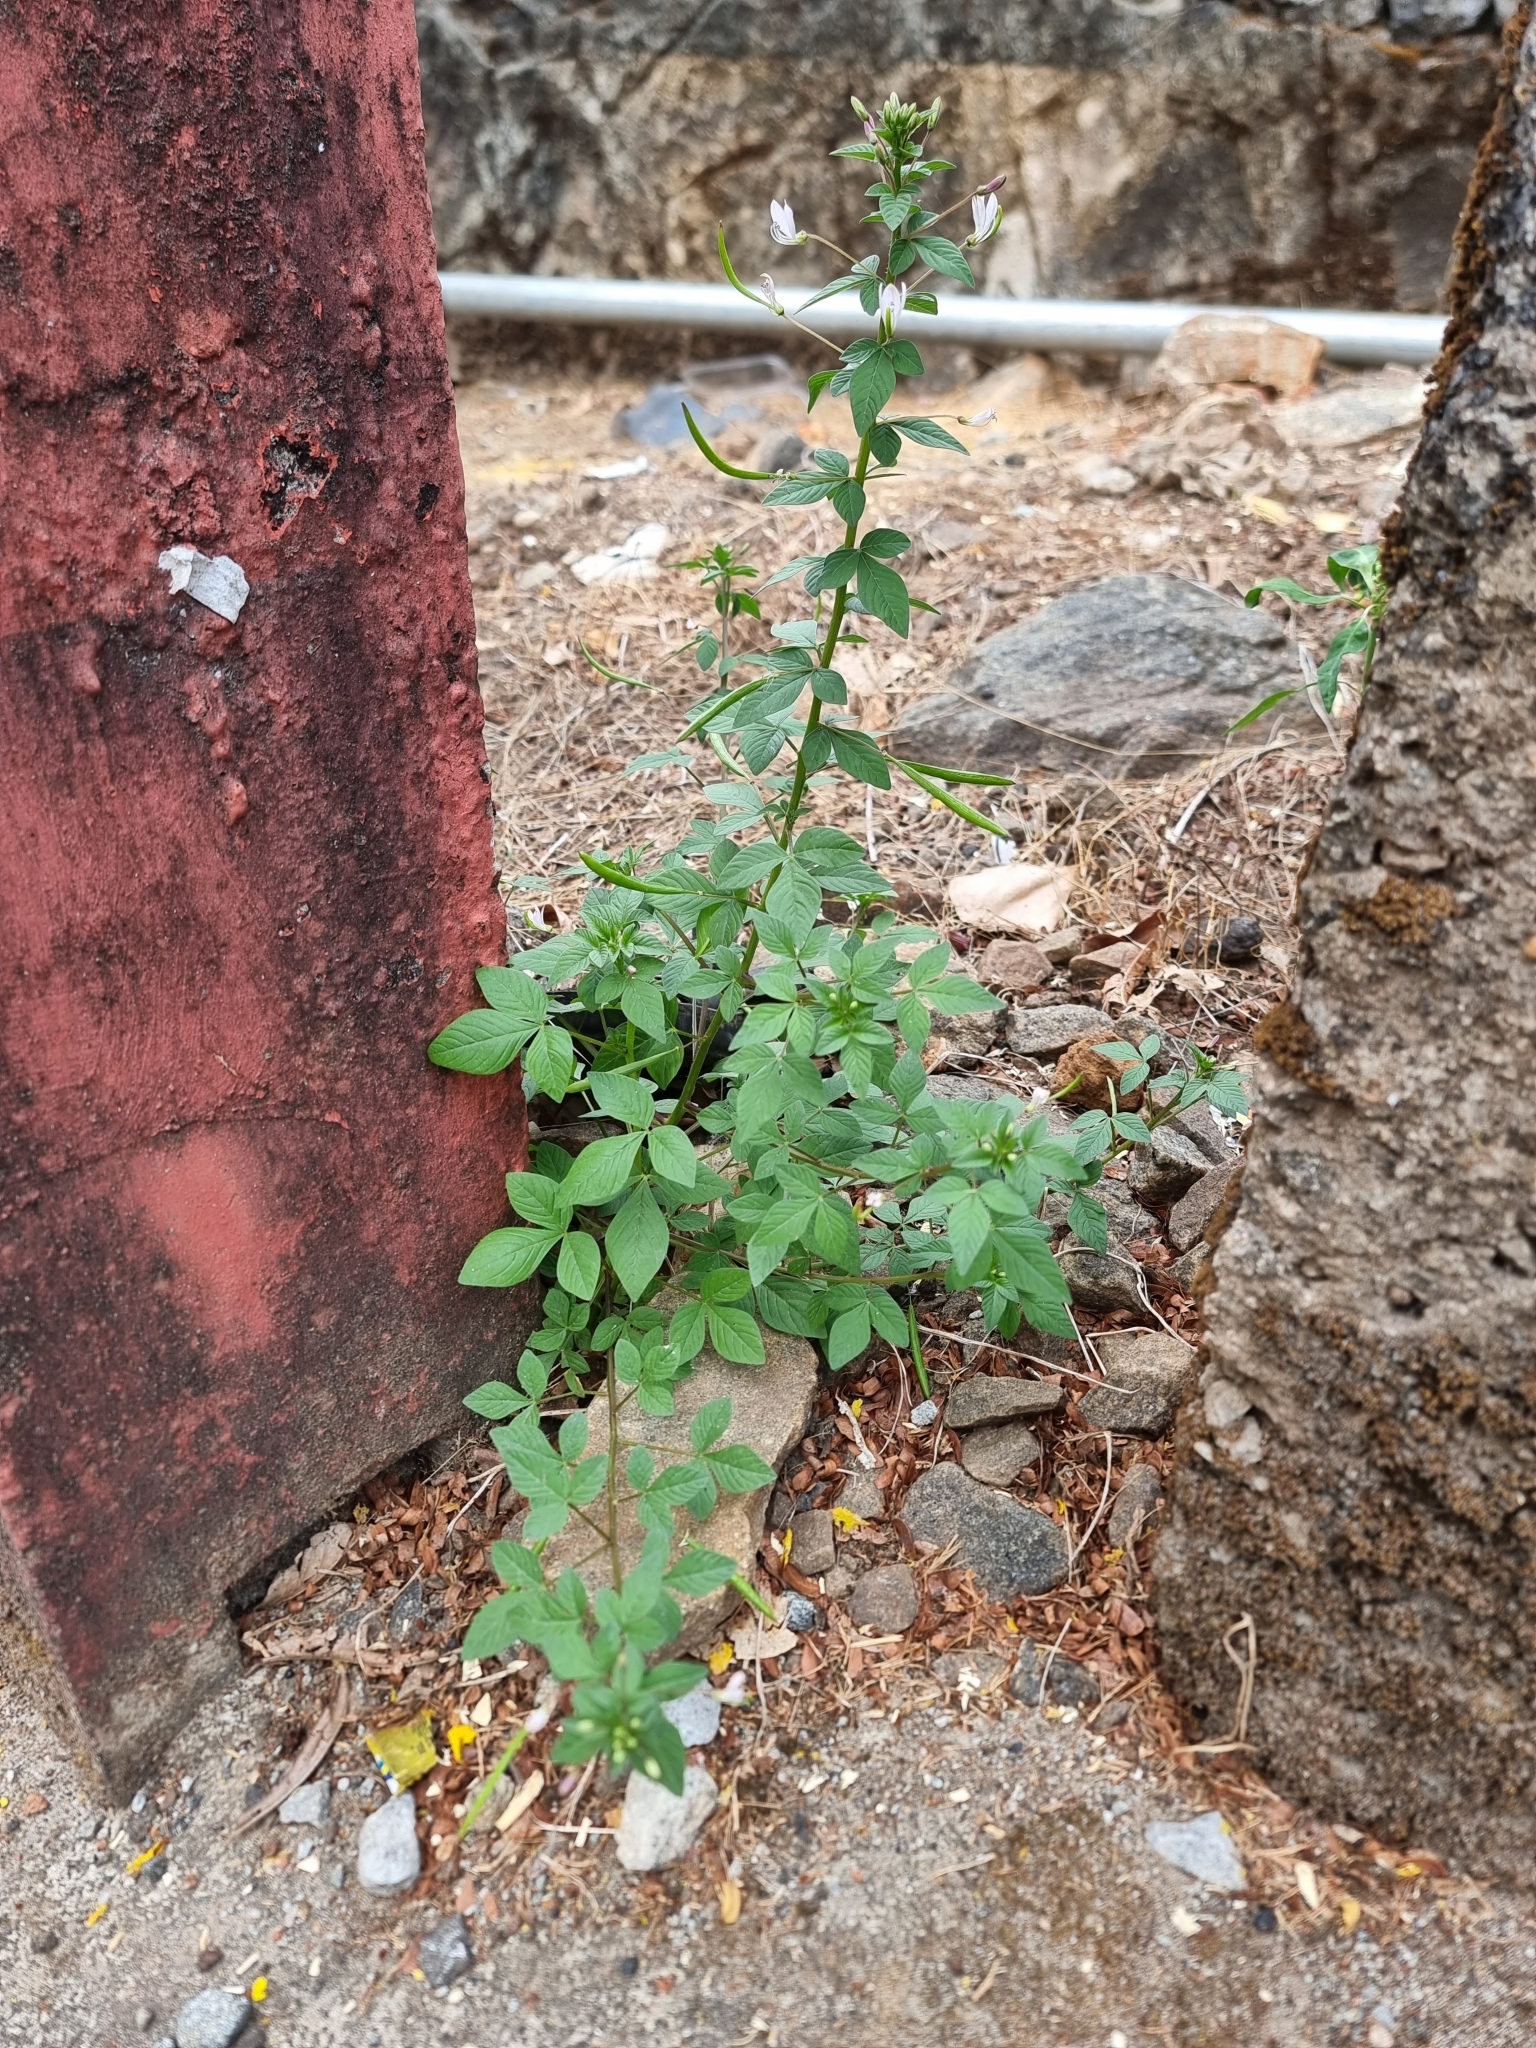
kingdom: Plantae
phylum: Tracheophyta
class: Magnoliopsida
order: Brassicales
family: Cleomaceae
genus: Sieruela
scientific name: Sieruela rutidosperma
